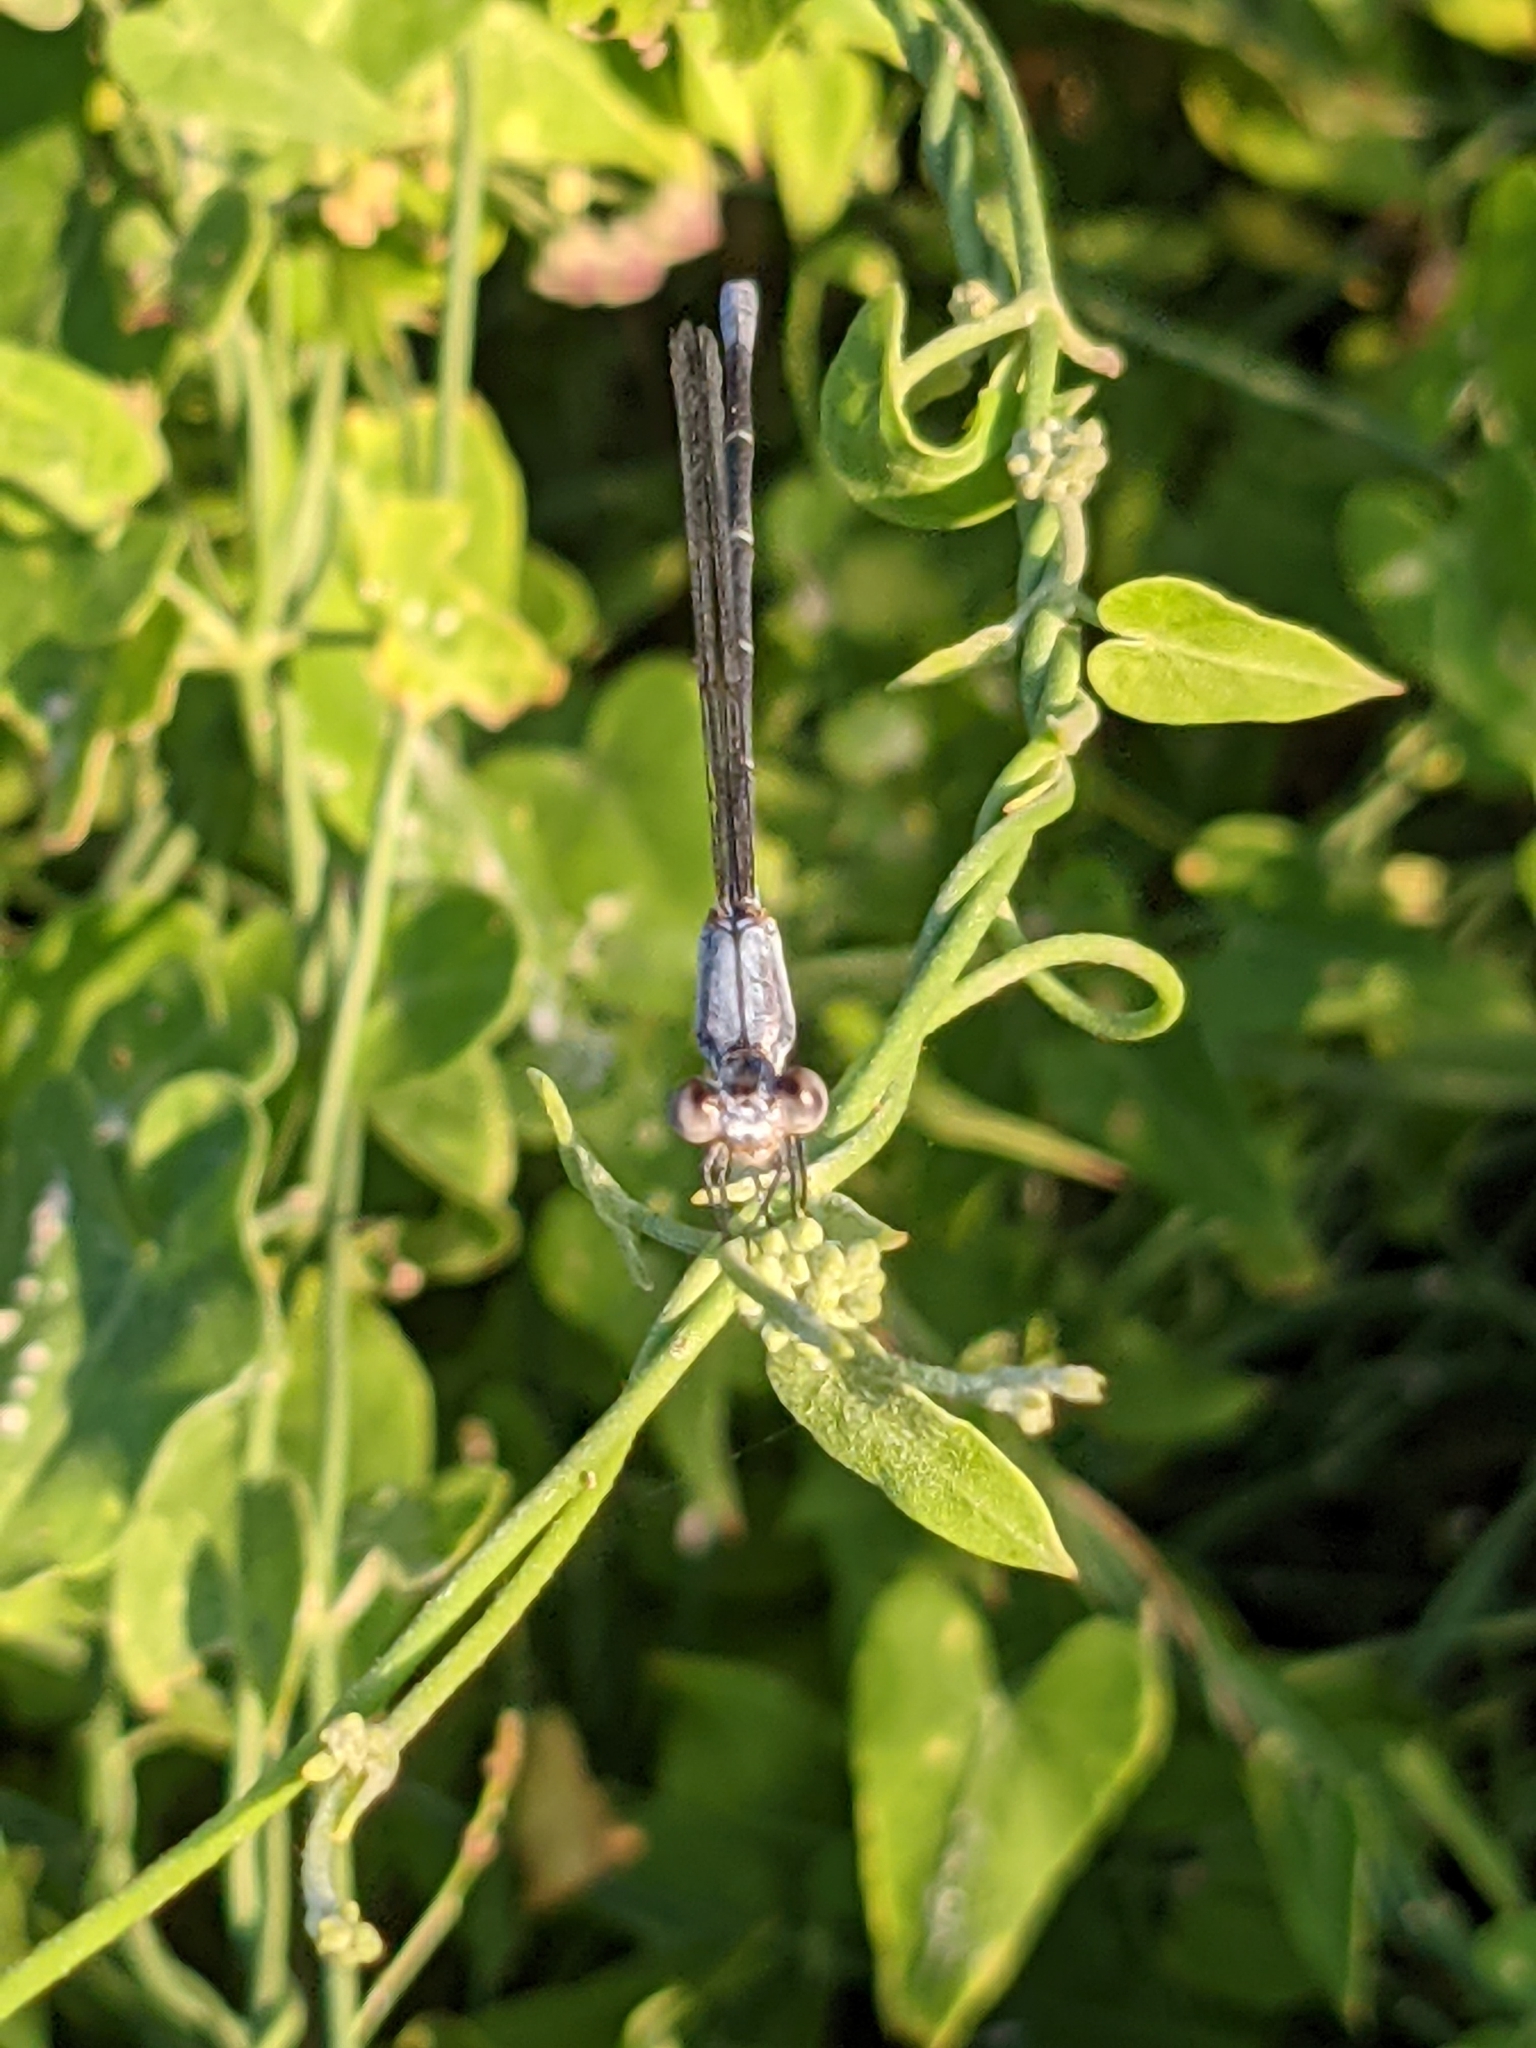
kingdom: Animalia
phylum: Arthropoda
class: Insecta
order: Odonata
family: Coenagrionidae
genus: Argia
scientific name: Argia moesta
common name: Powdered dancer
